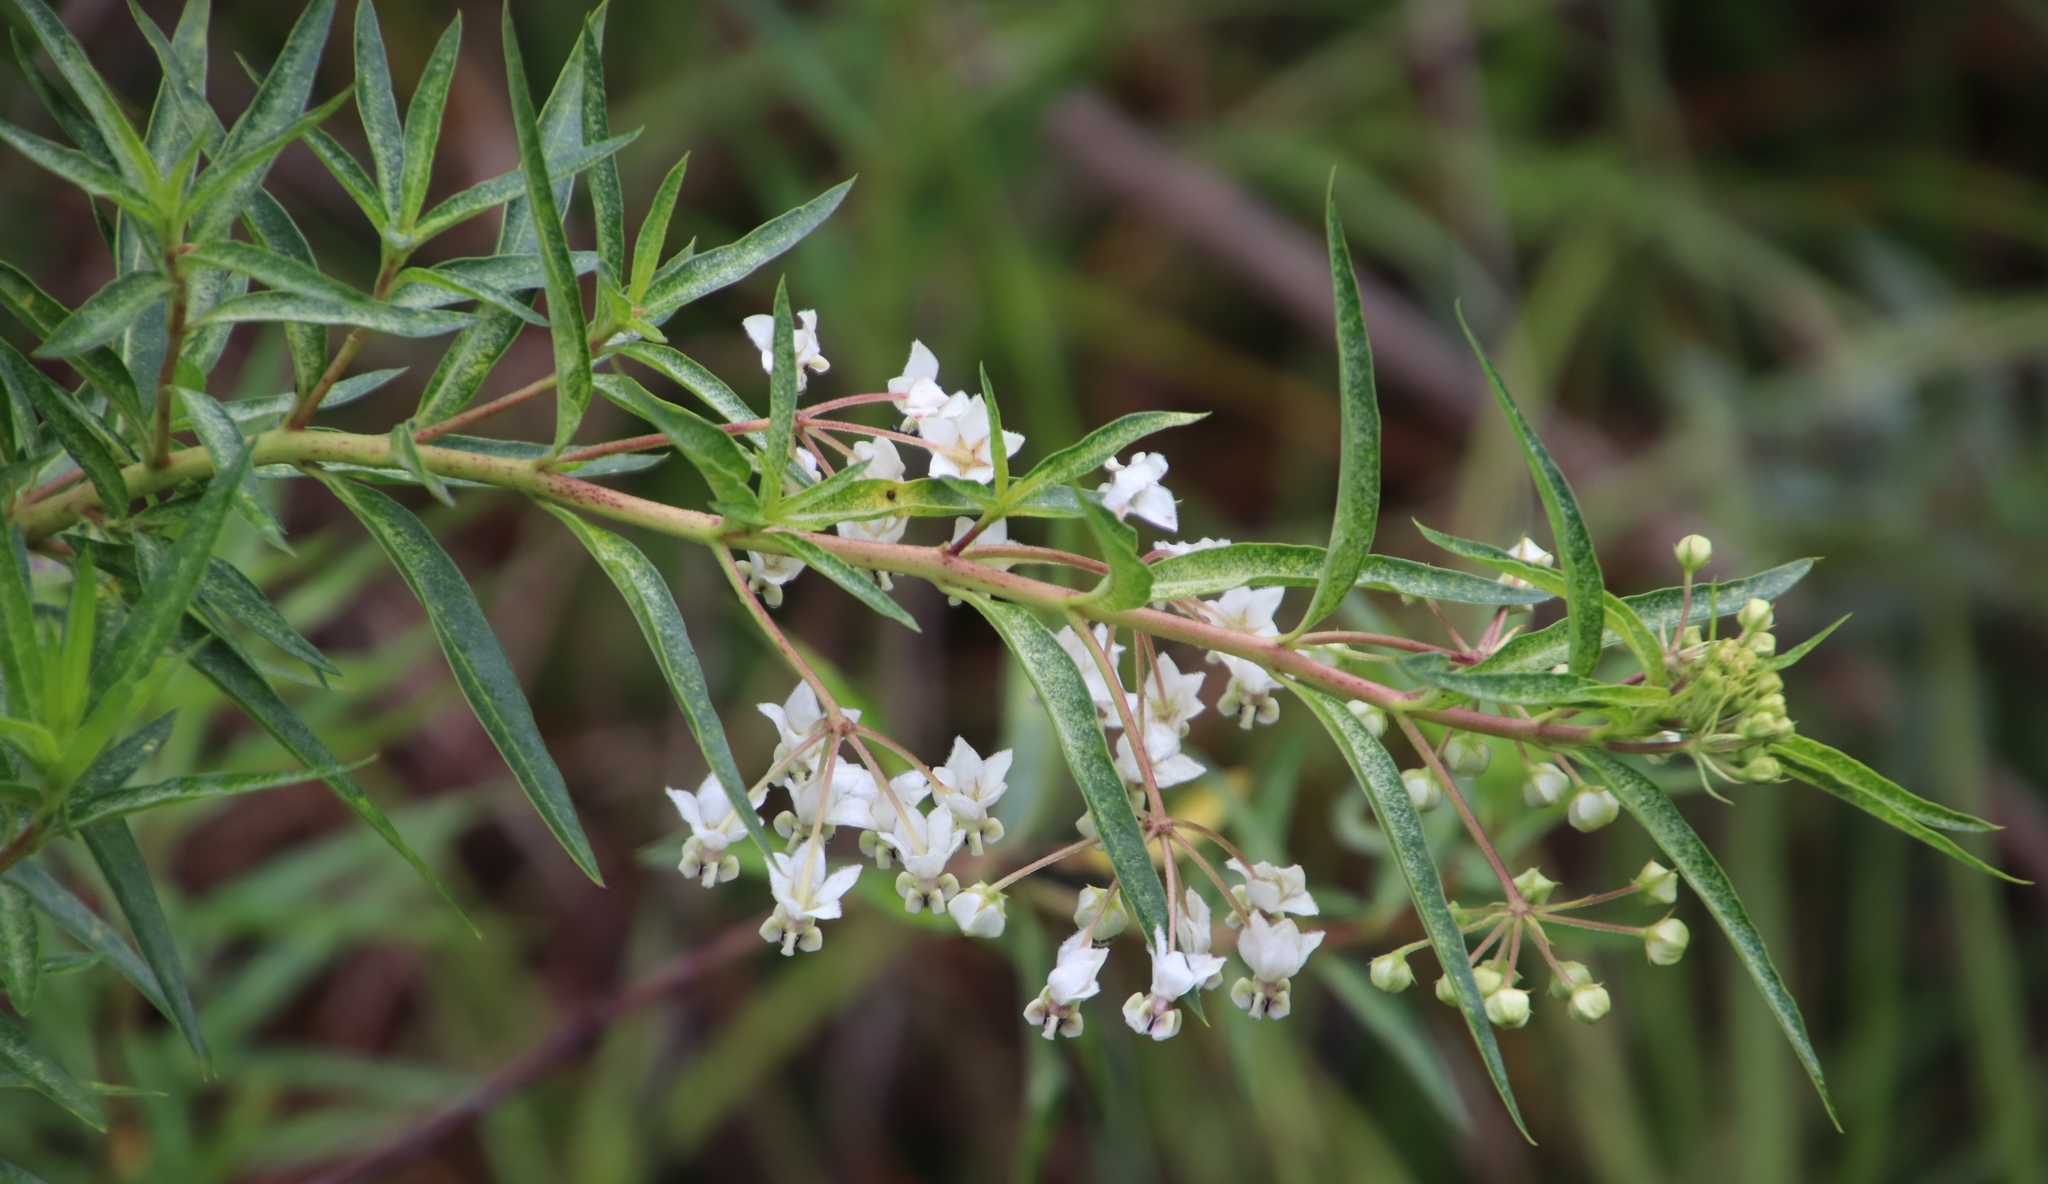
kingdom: Plantae
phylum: Tracheophyta
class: Magnoliopsida
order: Gentianales
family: Apocynaceae
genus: Gomphocarpus
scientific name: Gomphocarpus fruticosus
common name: Milkweed
